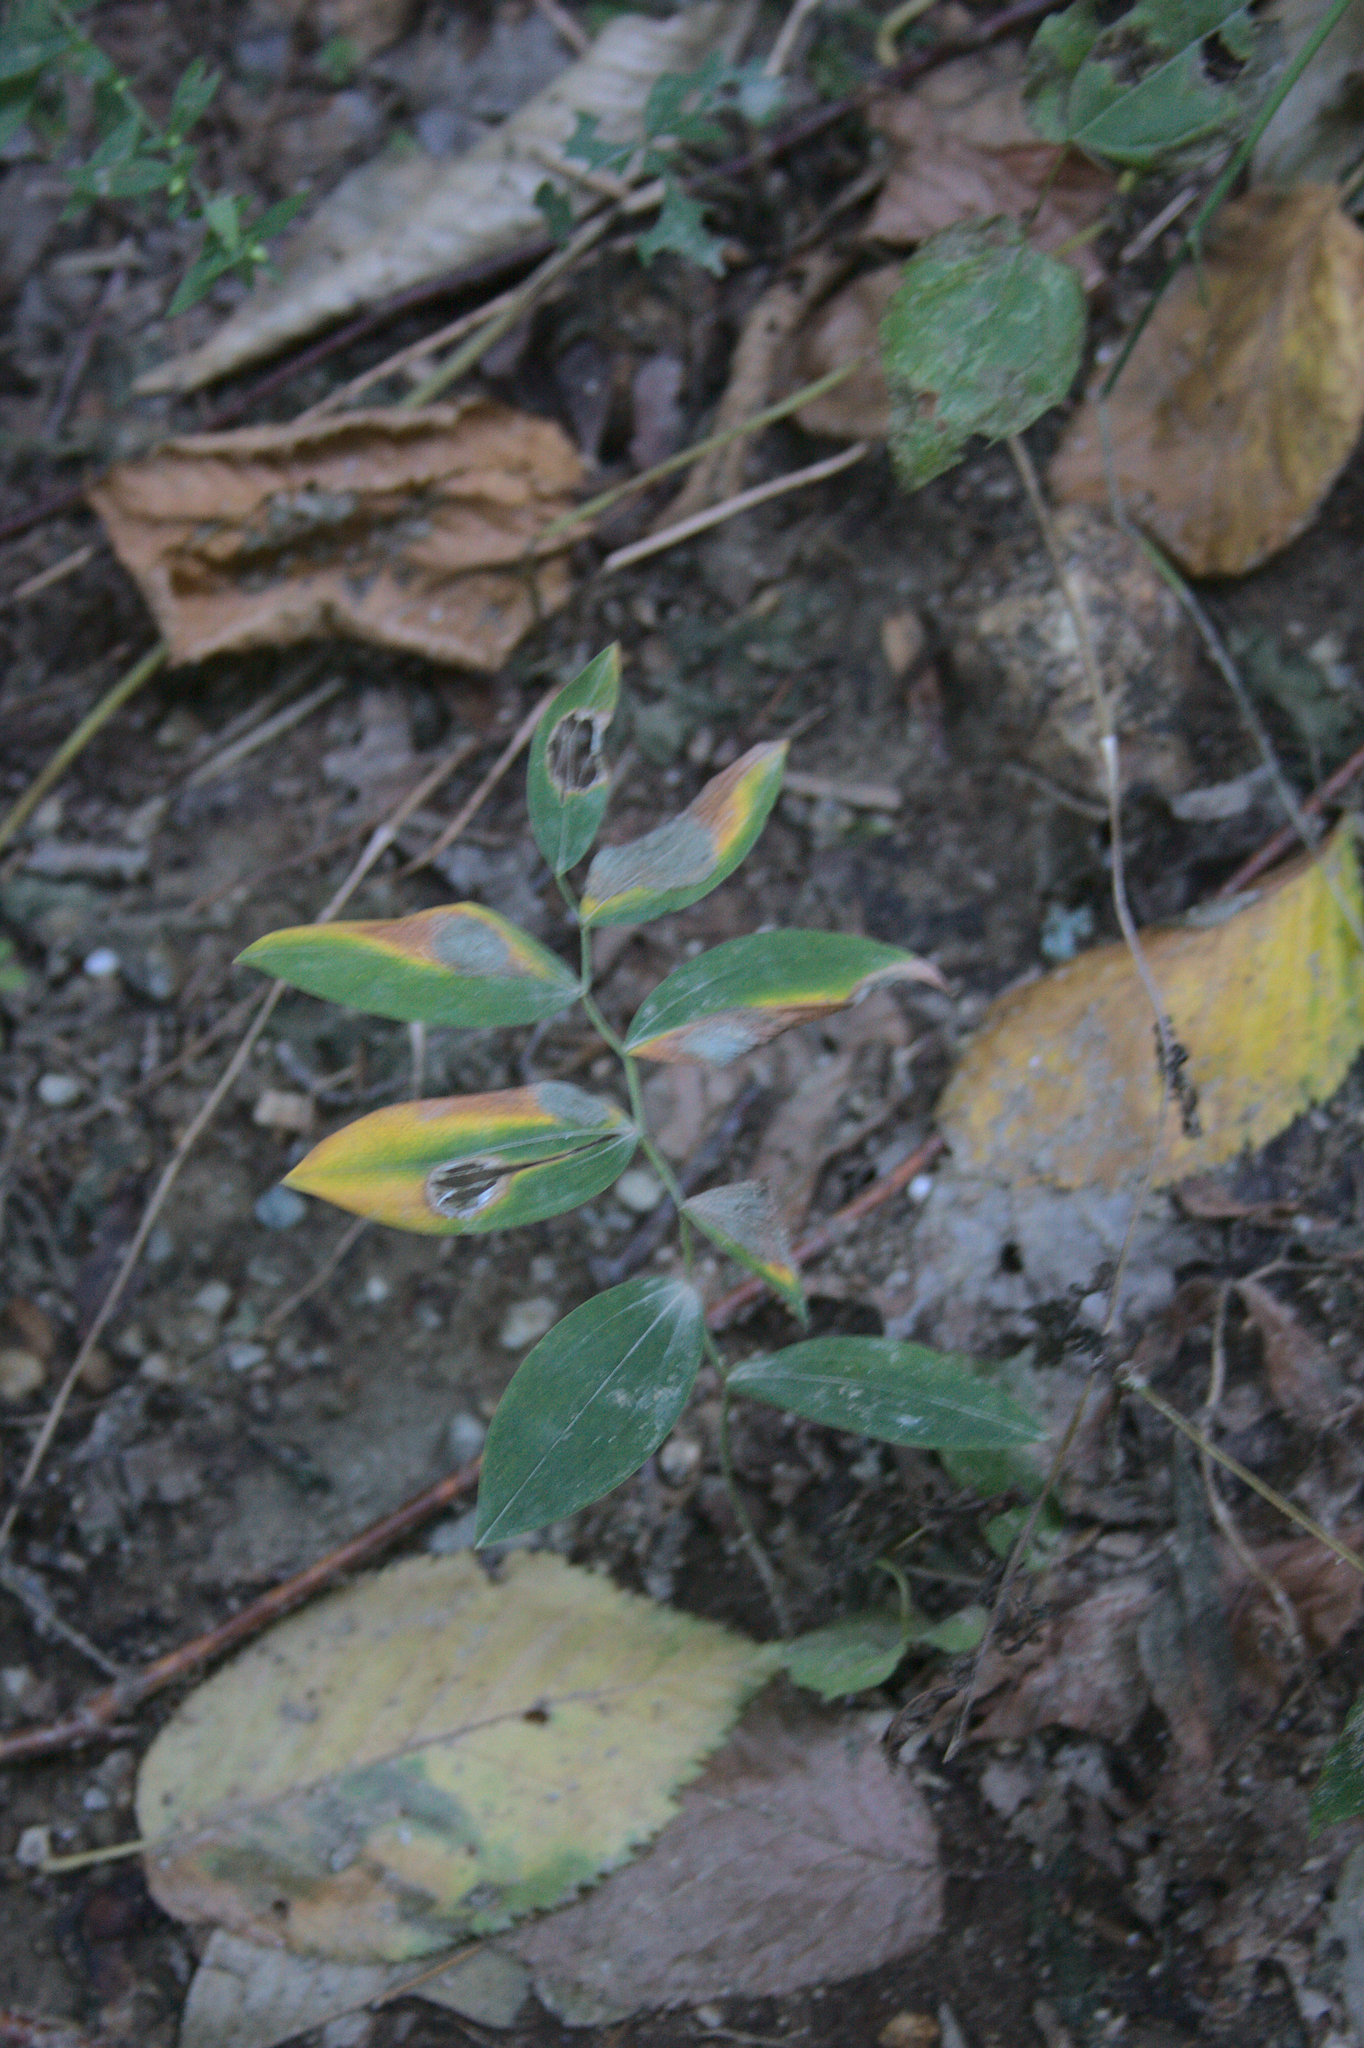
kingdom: Plantae
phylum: Tracheophyta
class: Liliopsida
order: Liliales
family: Colchicaceae
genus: Uvularia
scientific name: Uvularia sessilifolia
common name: Straw-lily
